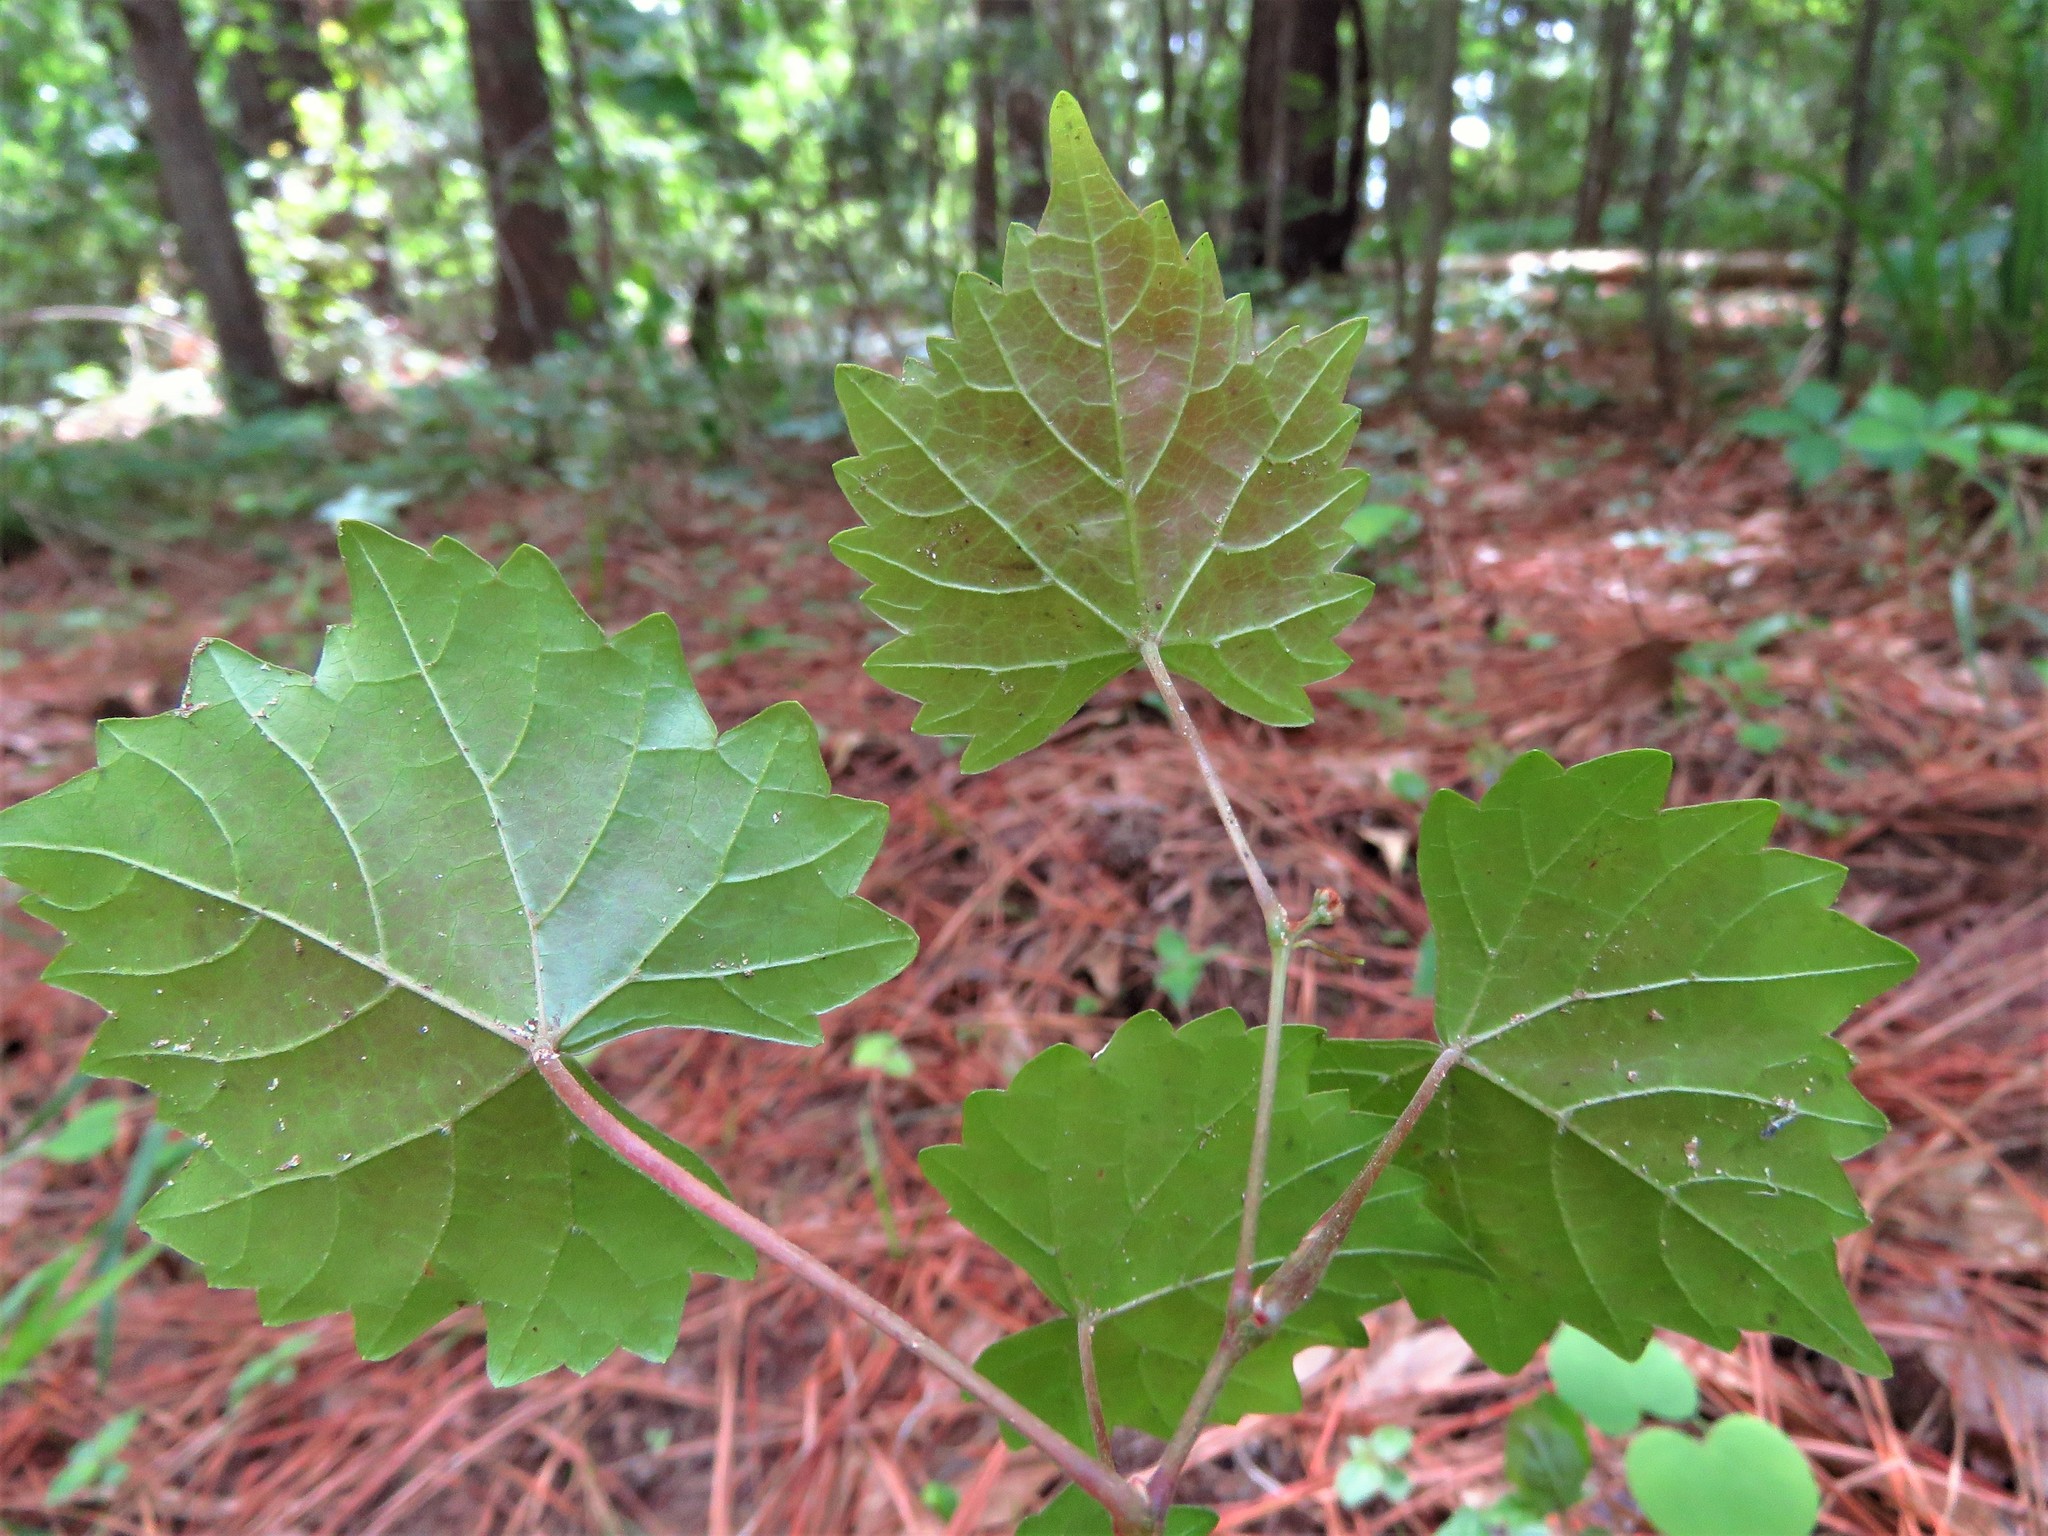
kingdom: Plantae
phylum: Tracheophyta
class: Magnoliopsida
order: Vitales
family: Vitaceae
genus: Vitis
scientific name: Vitis rotundifolia
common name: Muscadine grape
